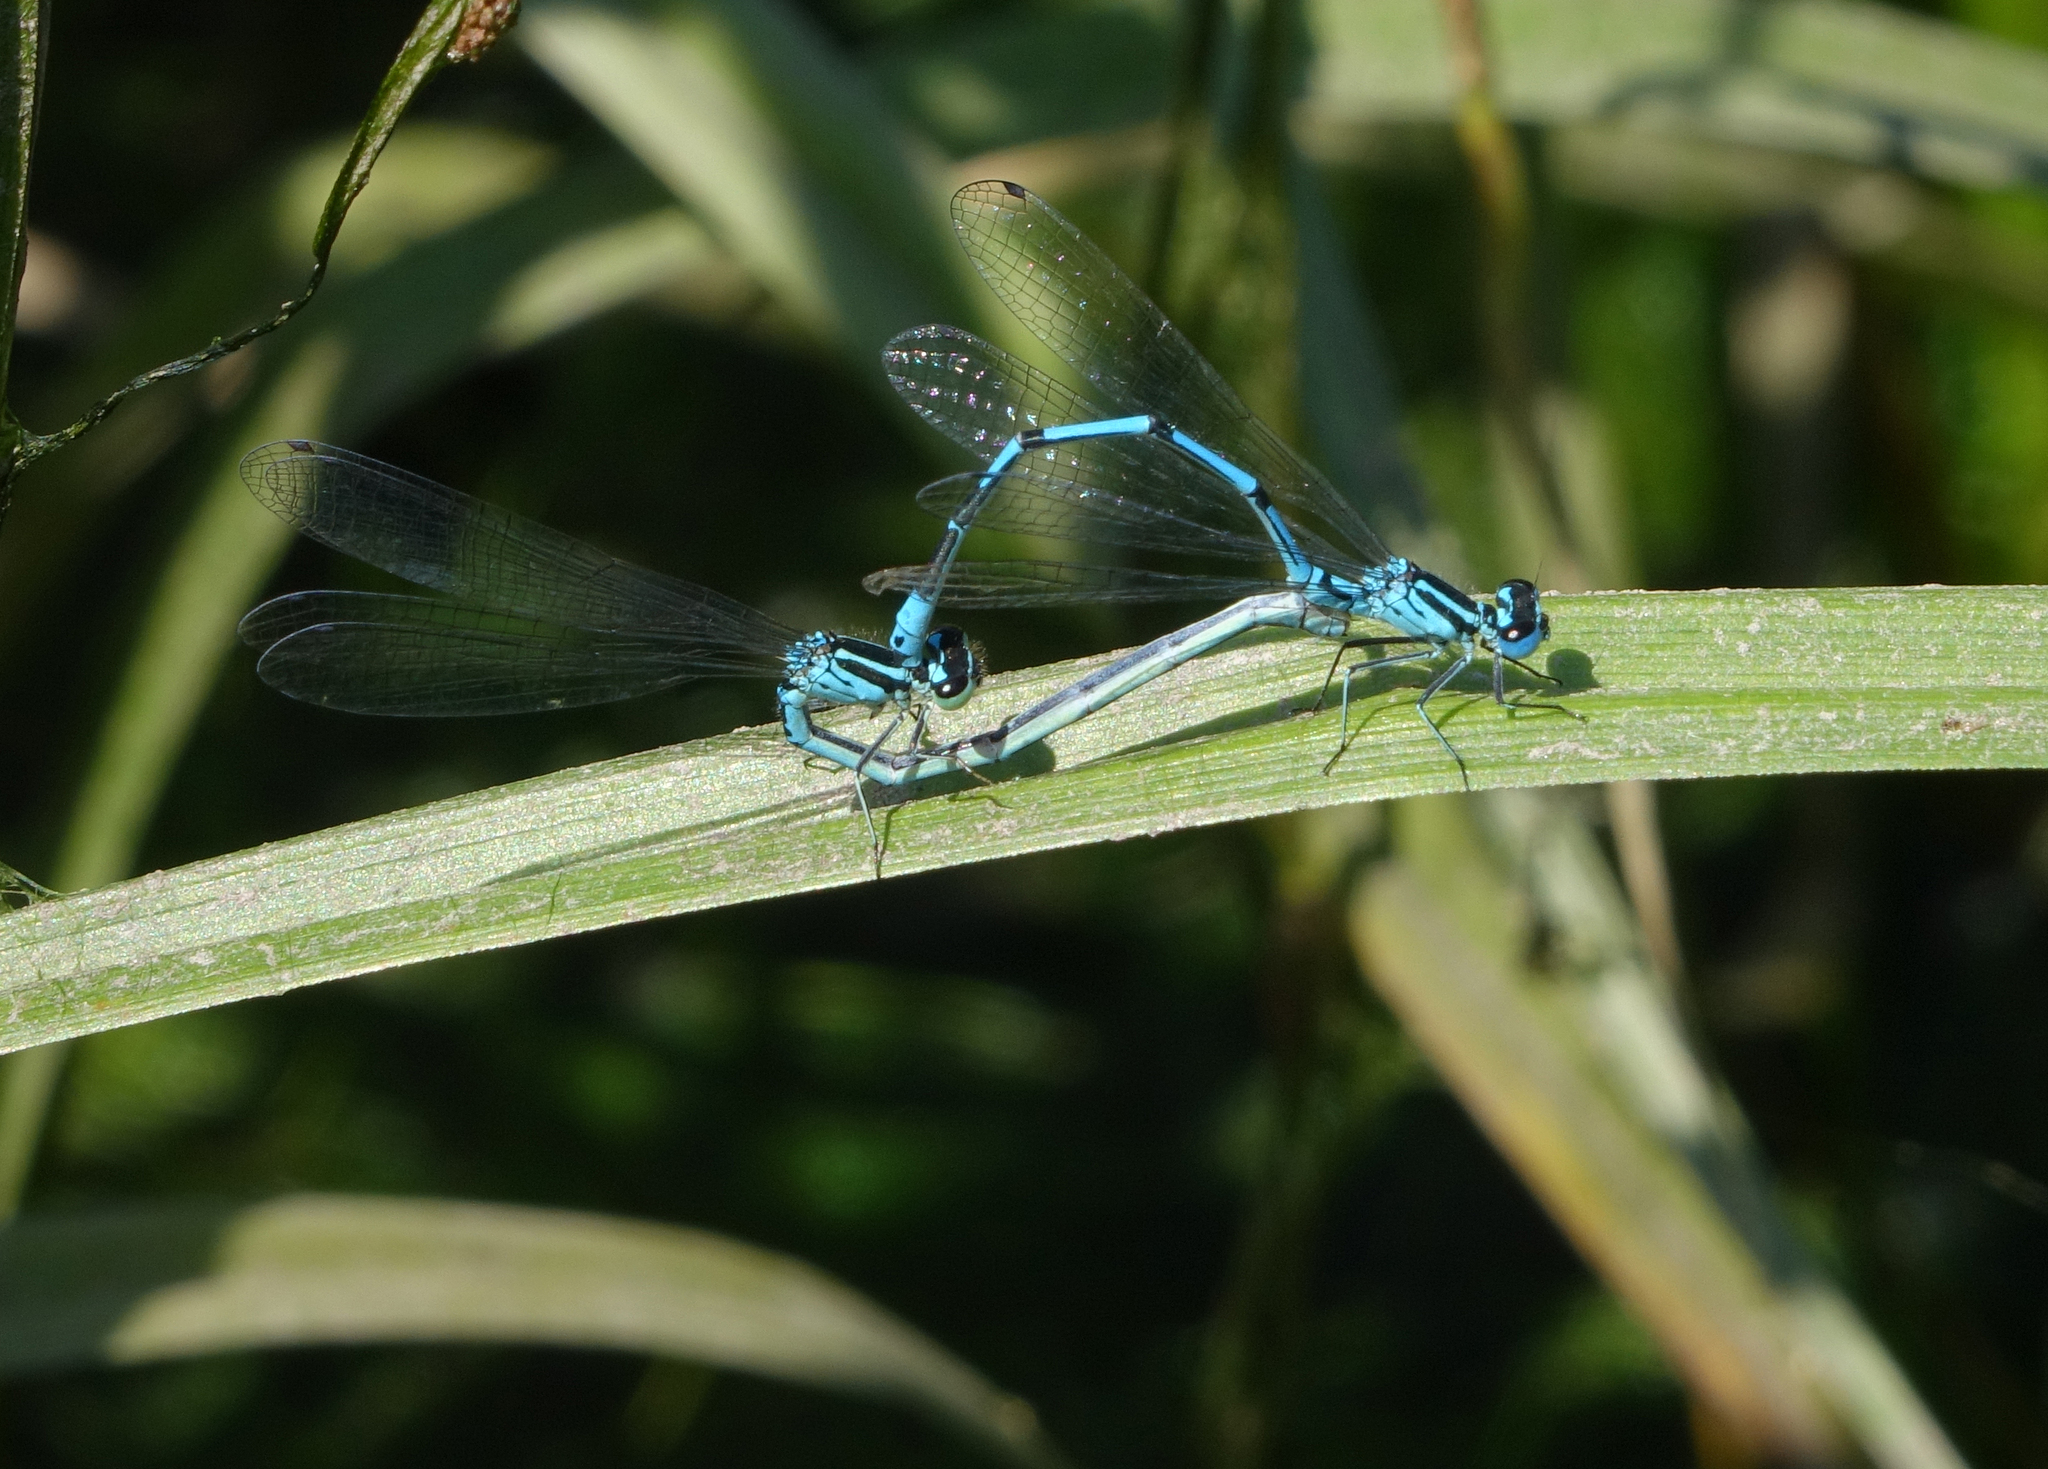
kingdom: Animalia
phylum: Arthropoda
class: Insecta
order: Odonata
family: Coenagrionidae
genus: Coenagrion
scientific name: Coenagrion puella
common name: Azure damselfly
